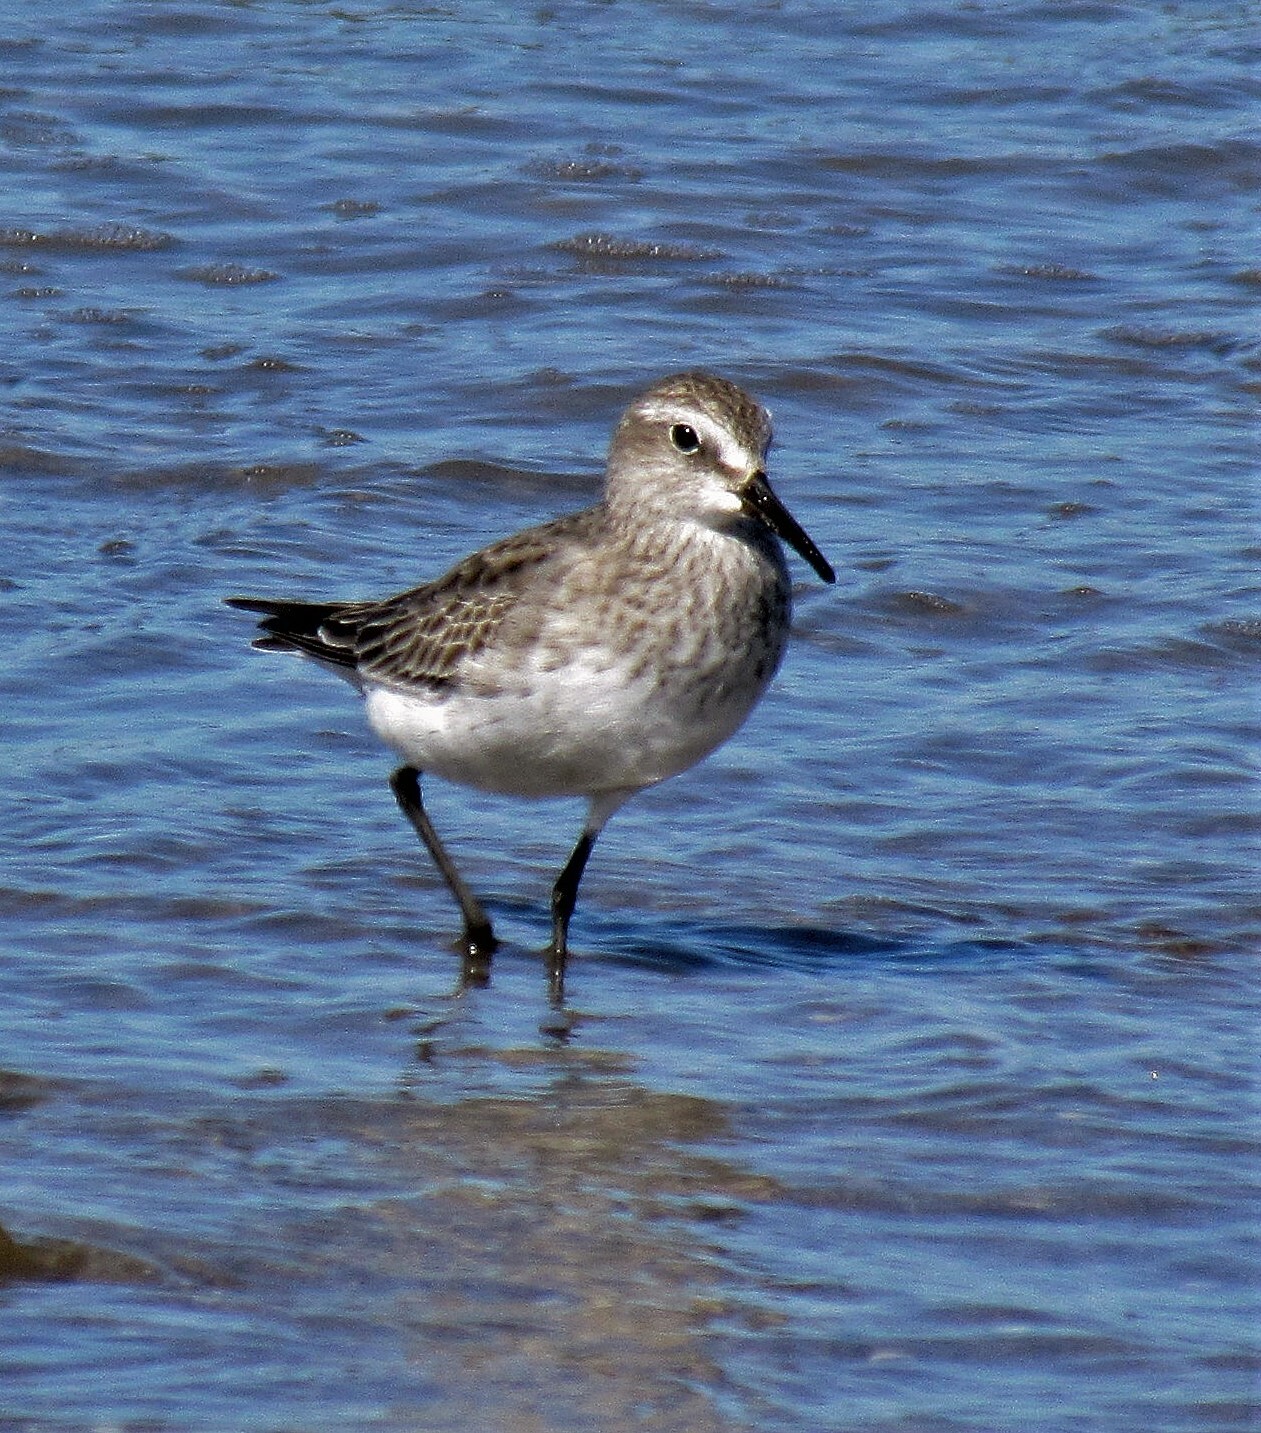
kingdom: Animalia
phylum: Chordata
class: Aves
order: Charadriiformes
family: Scolopacidae
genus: Calidris
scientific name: Calidris fuscicollis
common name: White-rumped sandpiper
